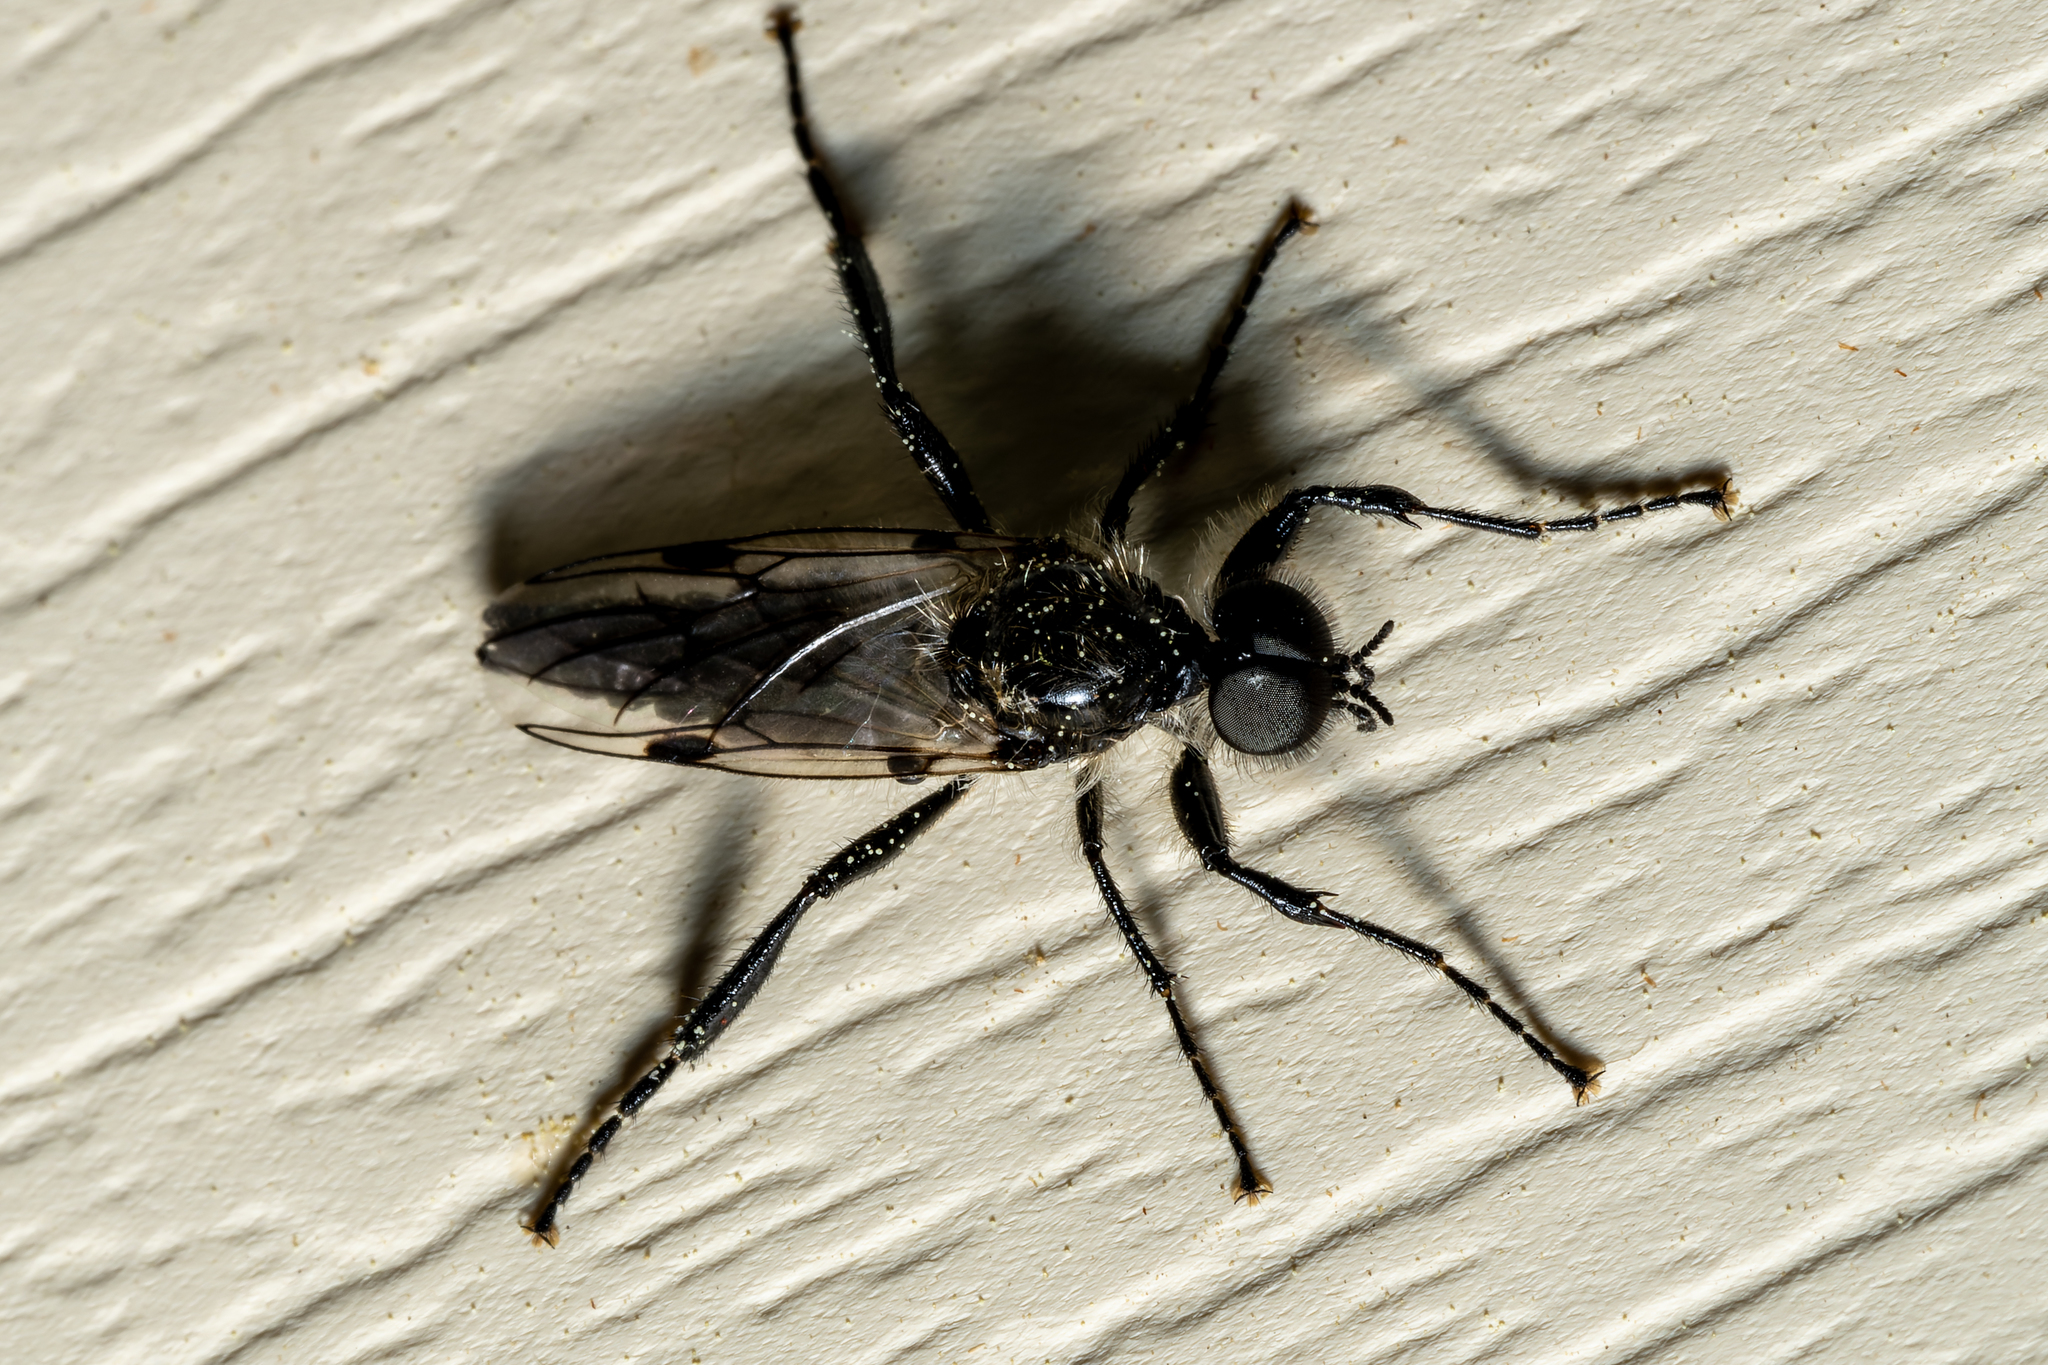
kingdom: Animalia
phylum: Arthropoda
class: Insecta
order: Diptera
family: Bibionidae
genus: Bibio
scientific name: Bibio albipennis
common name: White-winged march fly
